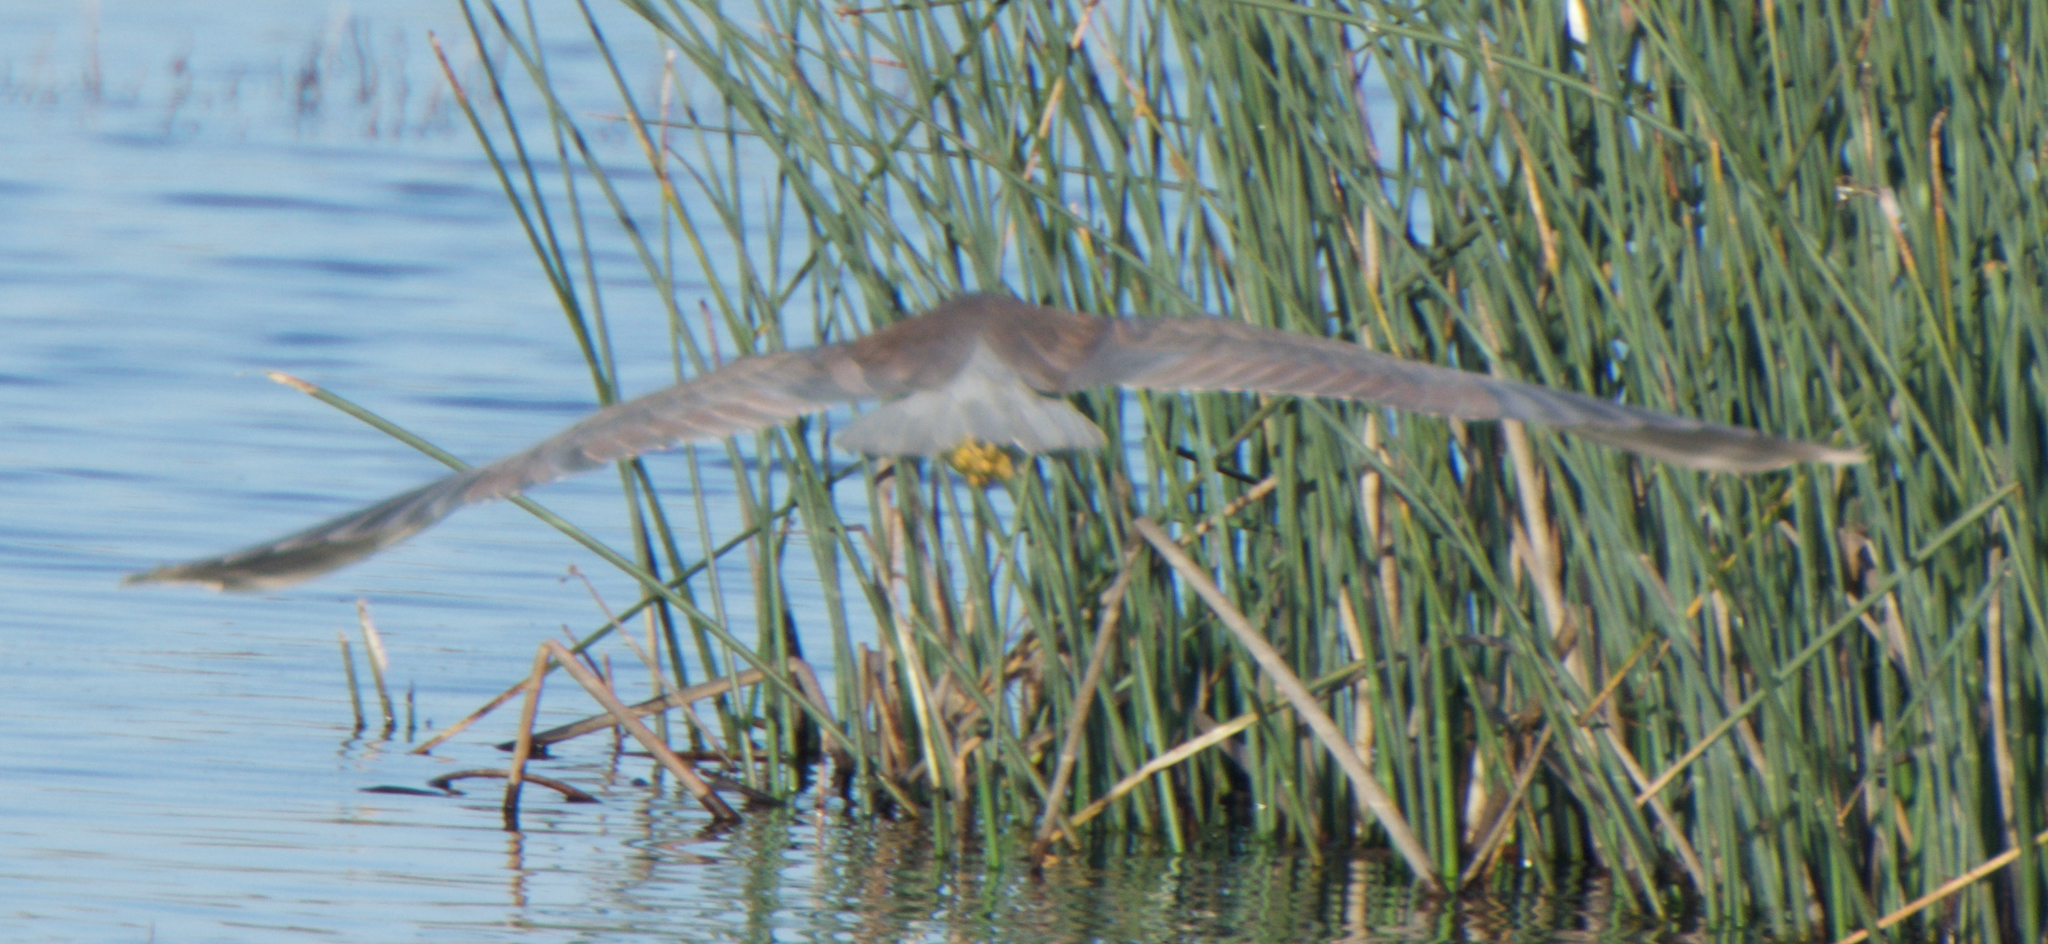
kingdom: Animalia
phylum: Chordata
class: Aves
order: Pelecaniformes
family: Ardeidae
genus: Nycticorax
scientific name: Nycticorax nycticorax
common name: Black-crowned night heron
